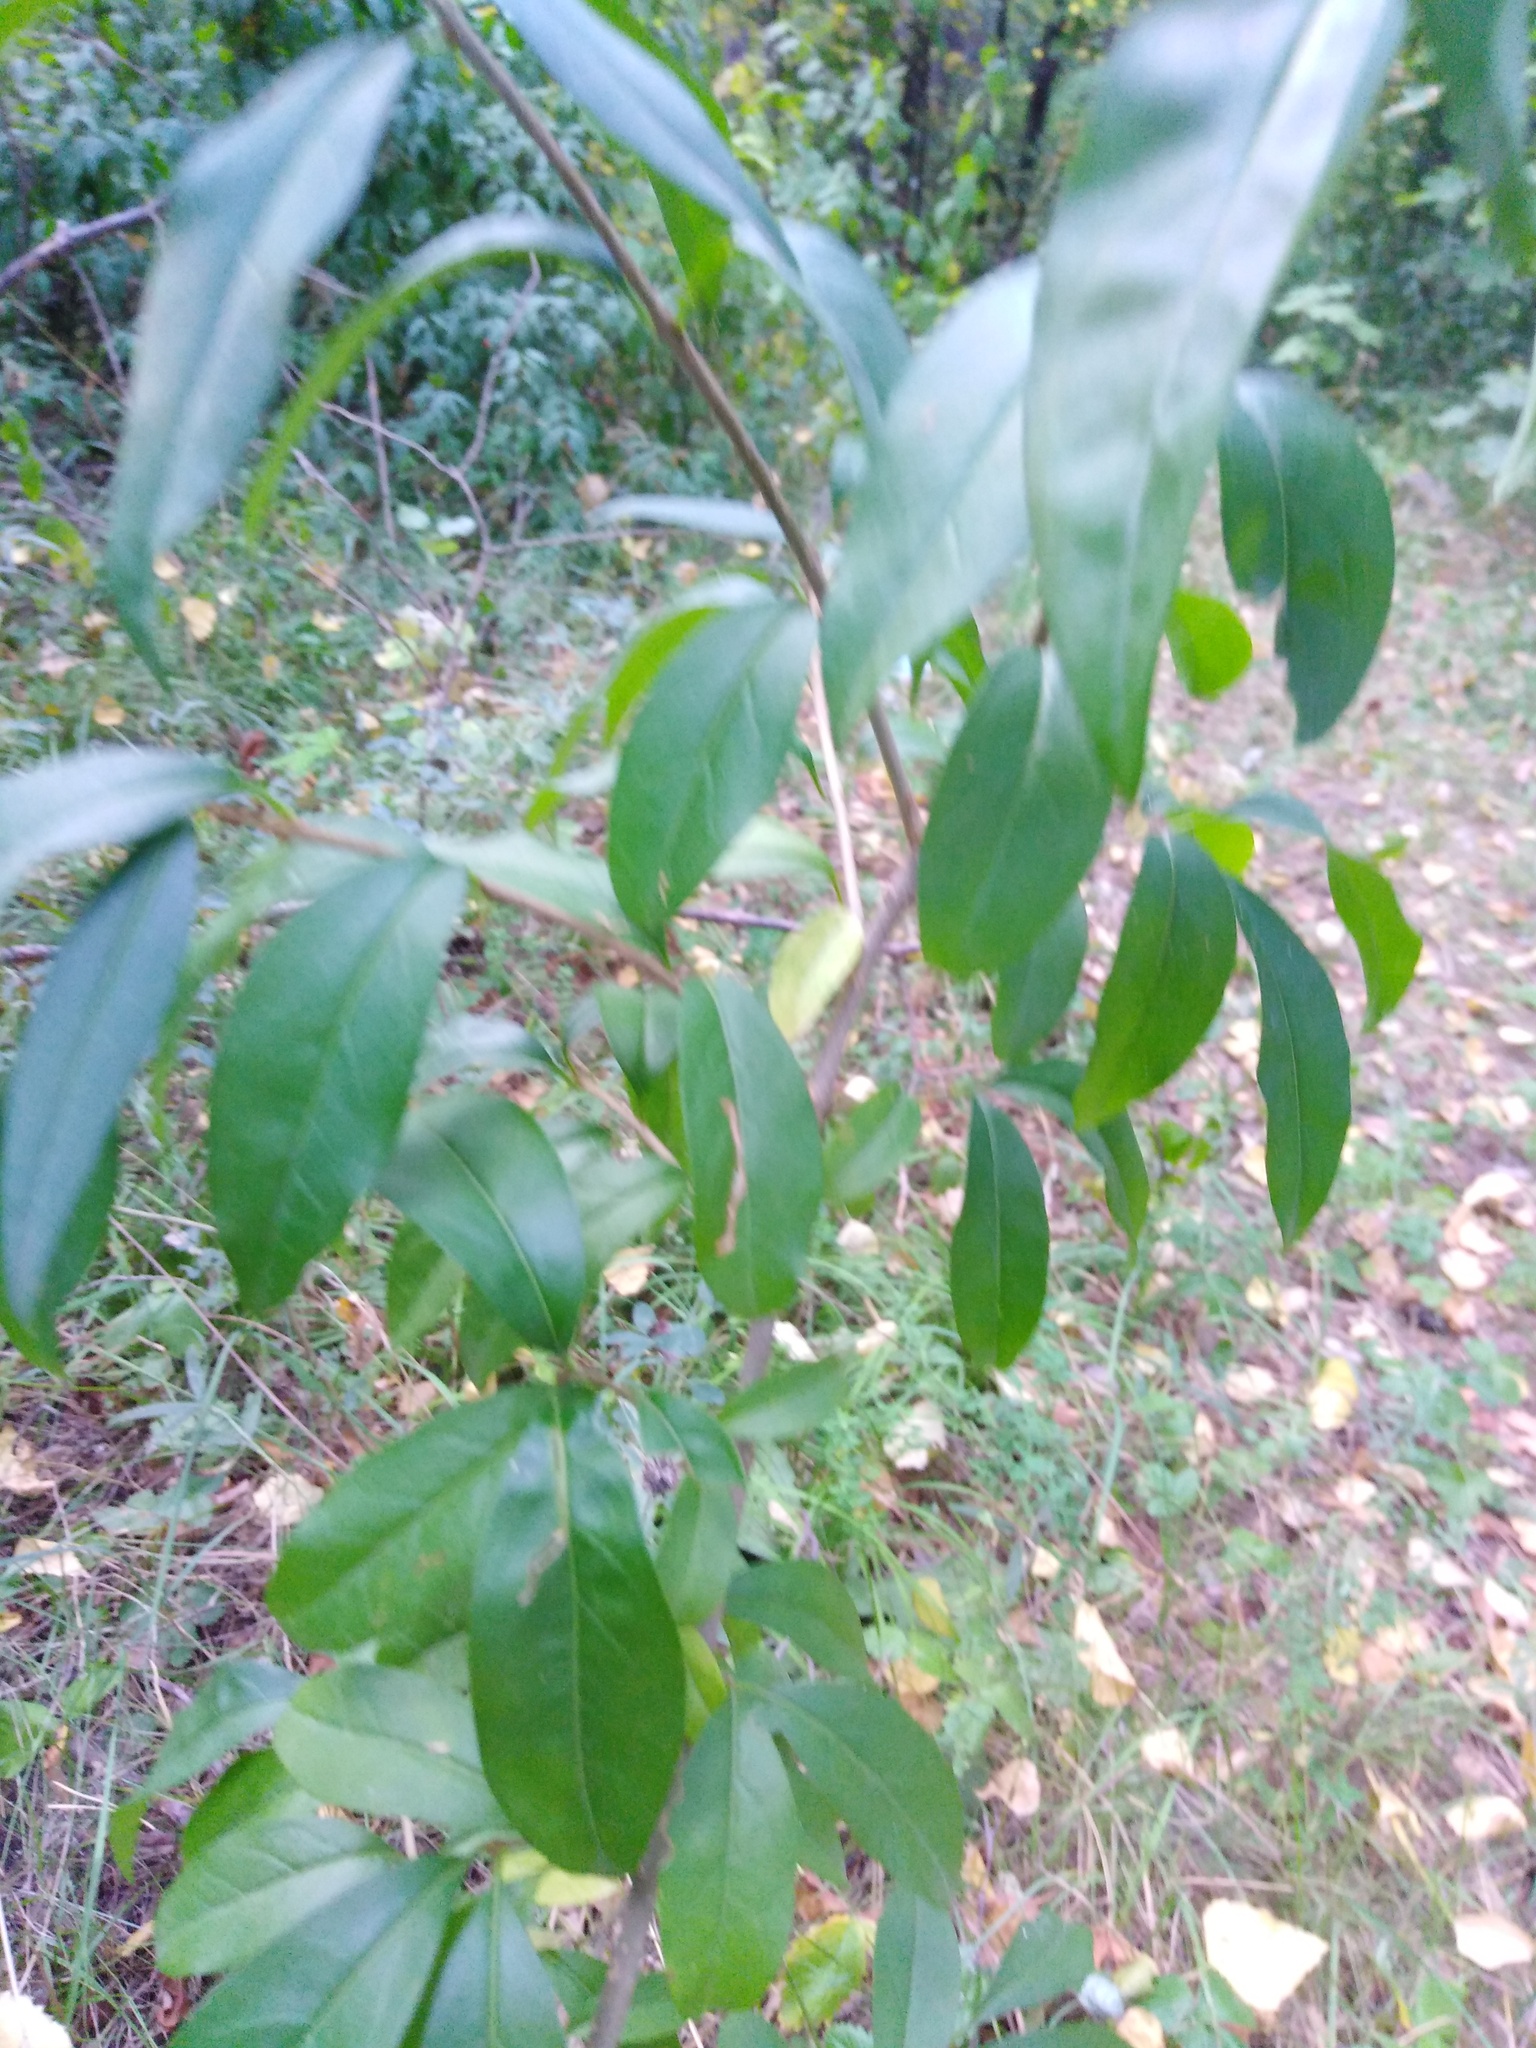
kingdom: Plantae
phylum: Tracheophyta
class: Magnoliopsida
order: Lamiales
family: Oleaceae
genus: Ligustrum
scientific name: Ligustrum vulgare
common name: Wild privet
